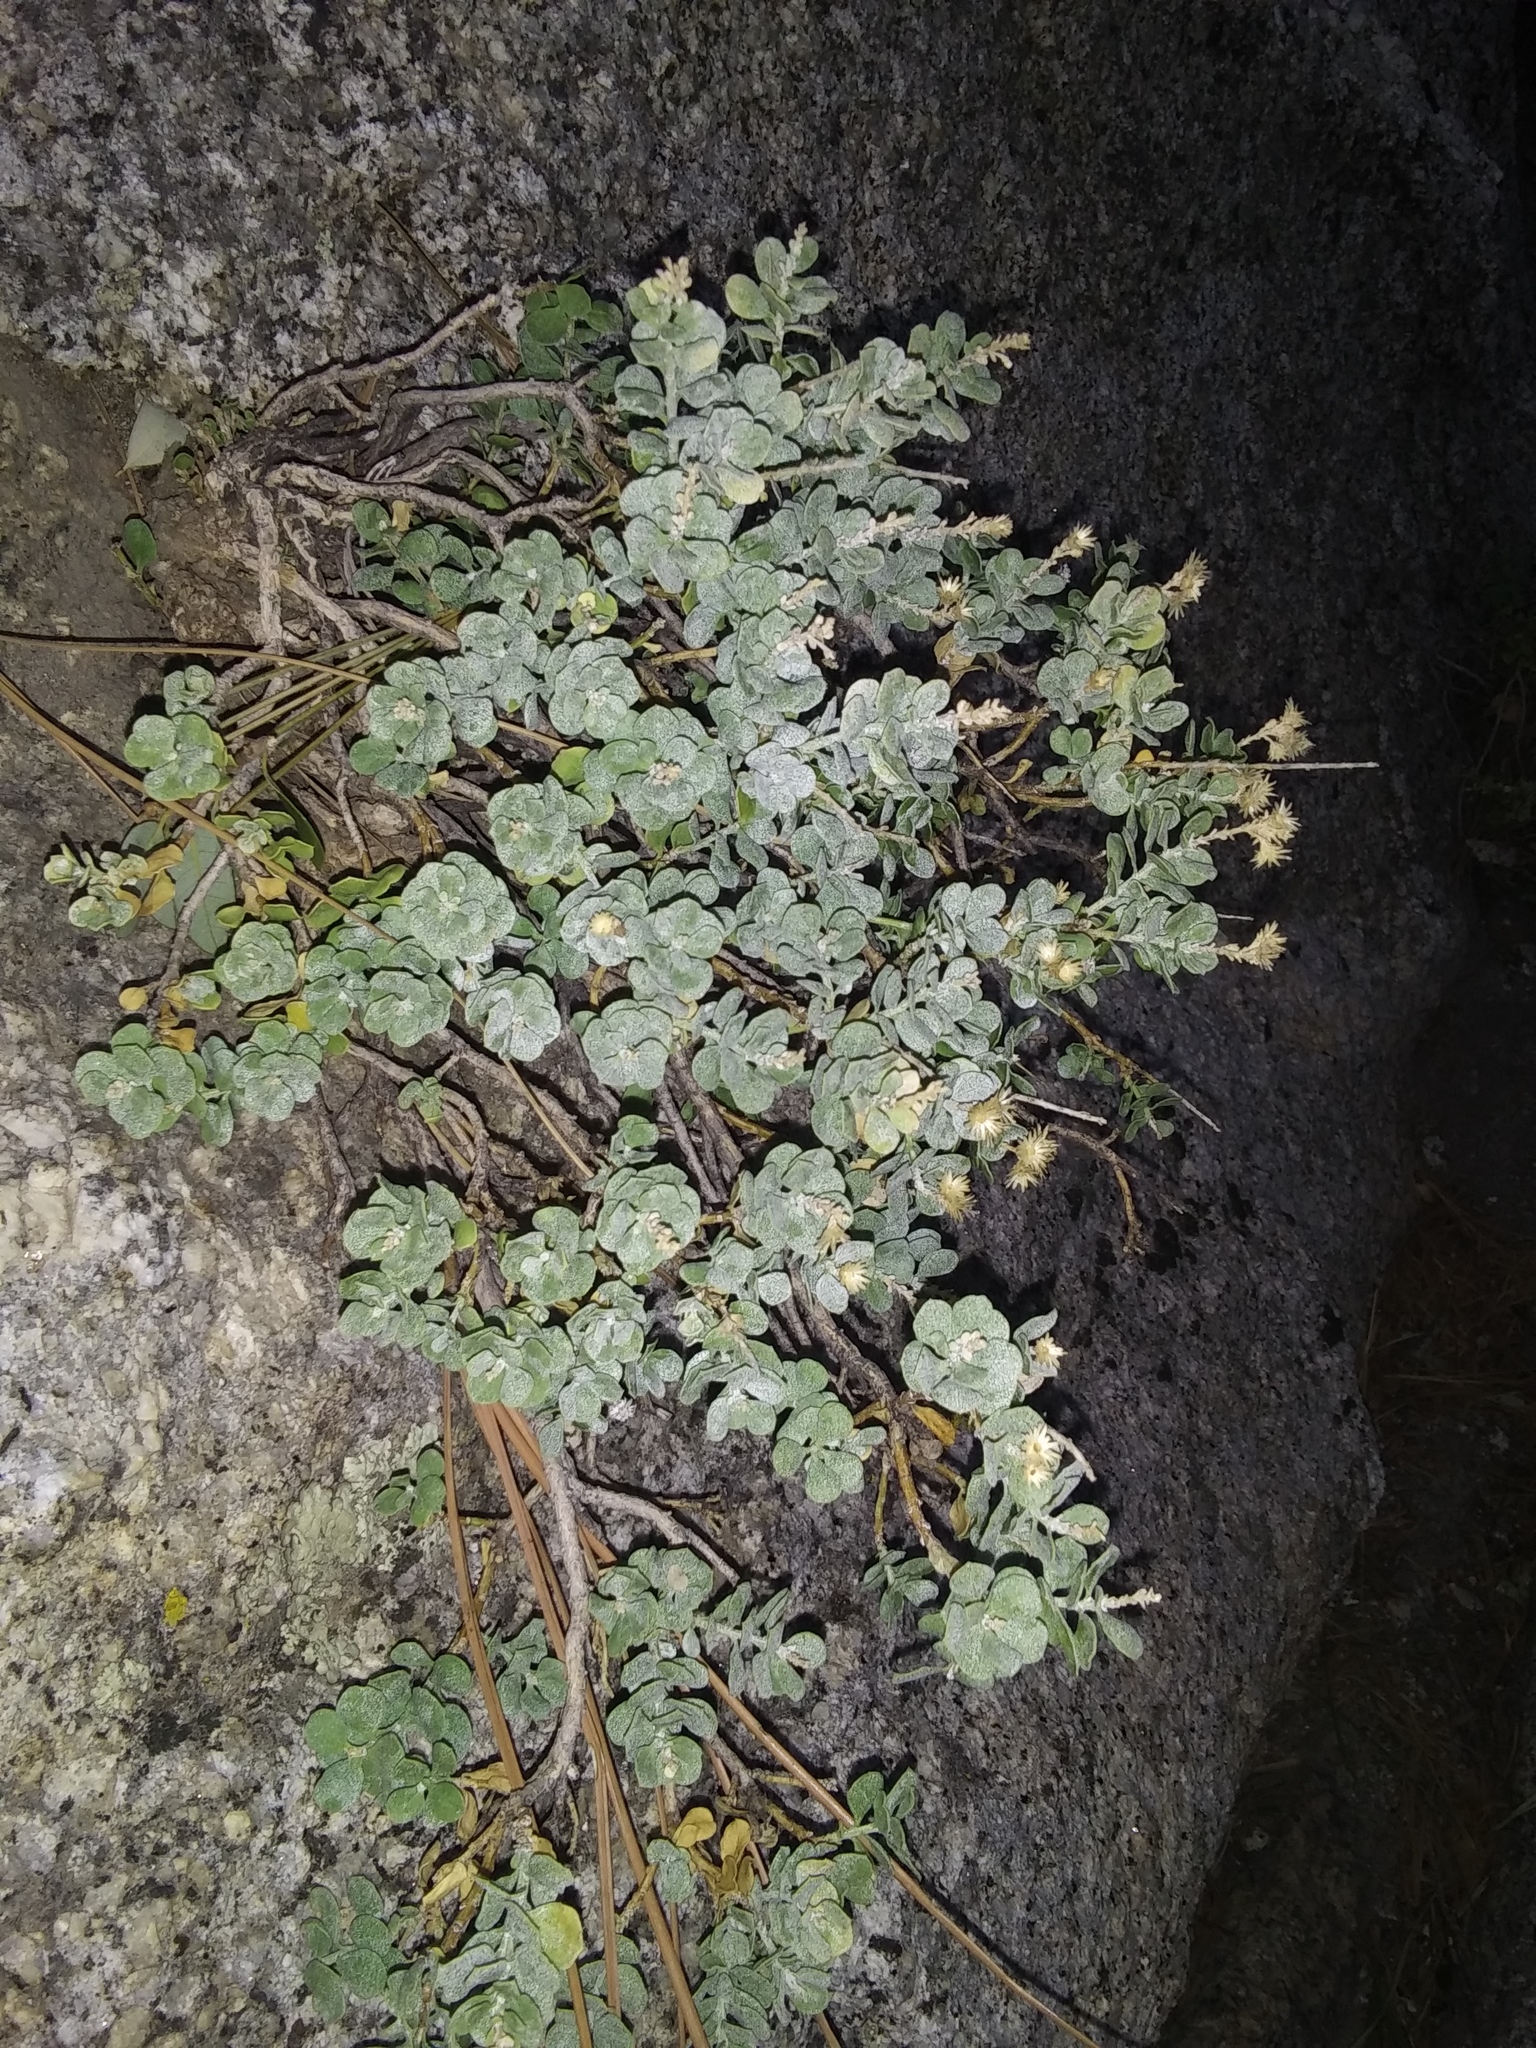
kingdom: Plantae
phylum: Tracheophyta
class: Magnoliopsida
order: Asterales
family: Asteraceae
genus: Ericameria
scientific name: Ericameria cuneata
